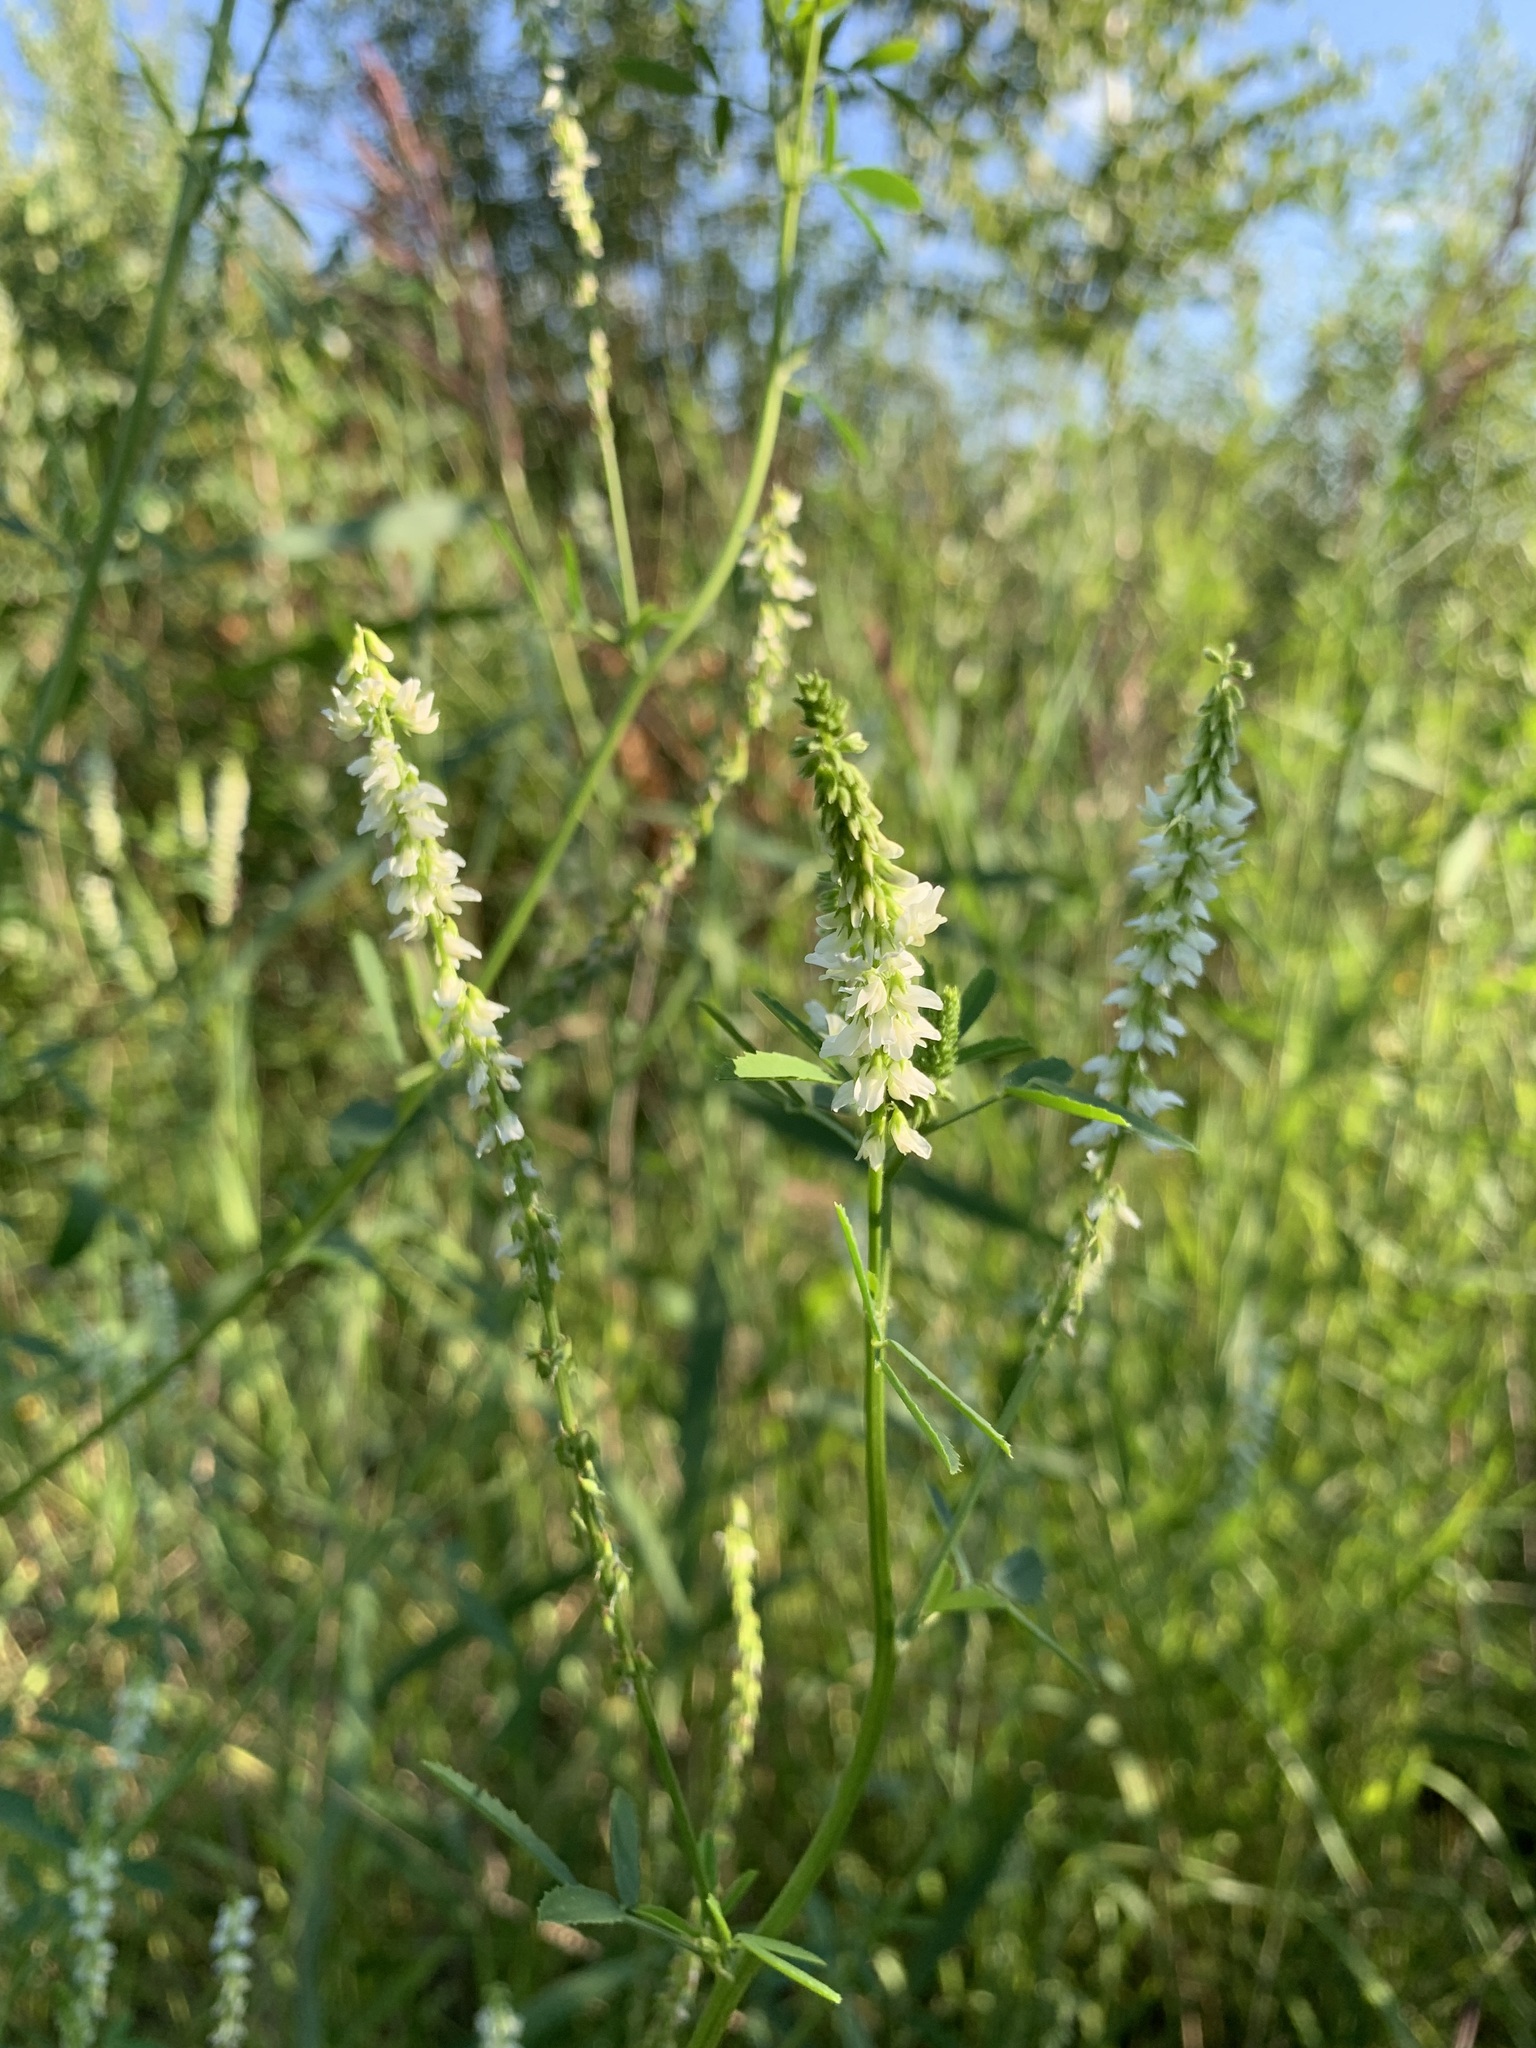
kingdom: Plantae
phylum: Tracheophyta
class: Magnoliopsida
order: Fabales
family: Fabaceae
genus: Melilotus
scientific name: Melilotus albus
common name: White melilot
